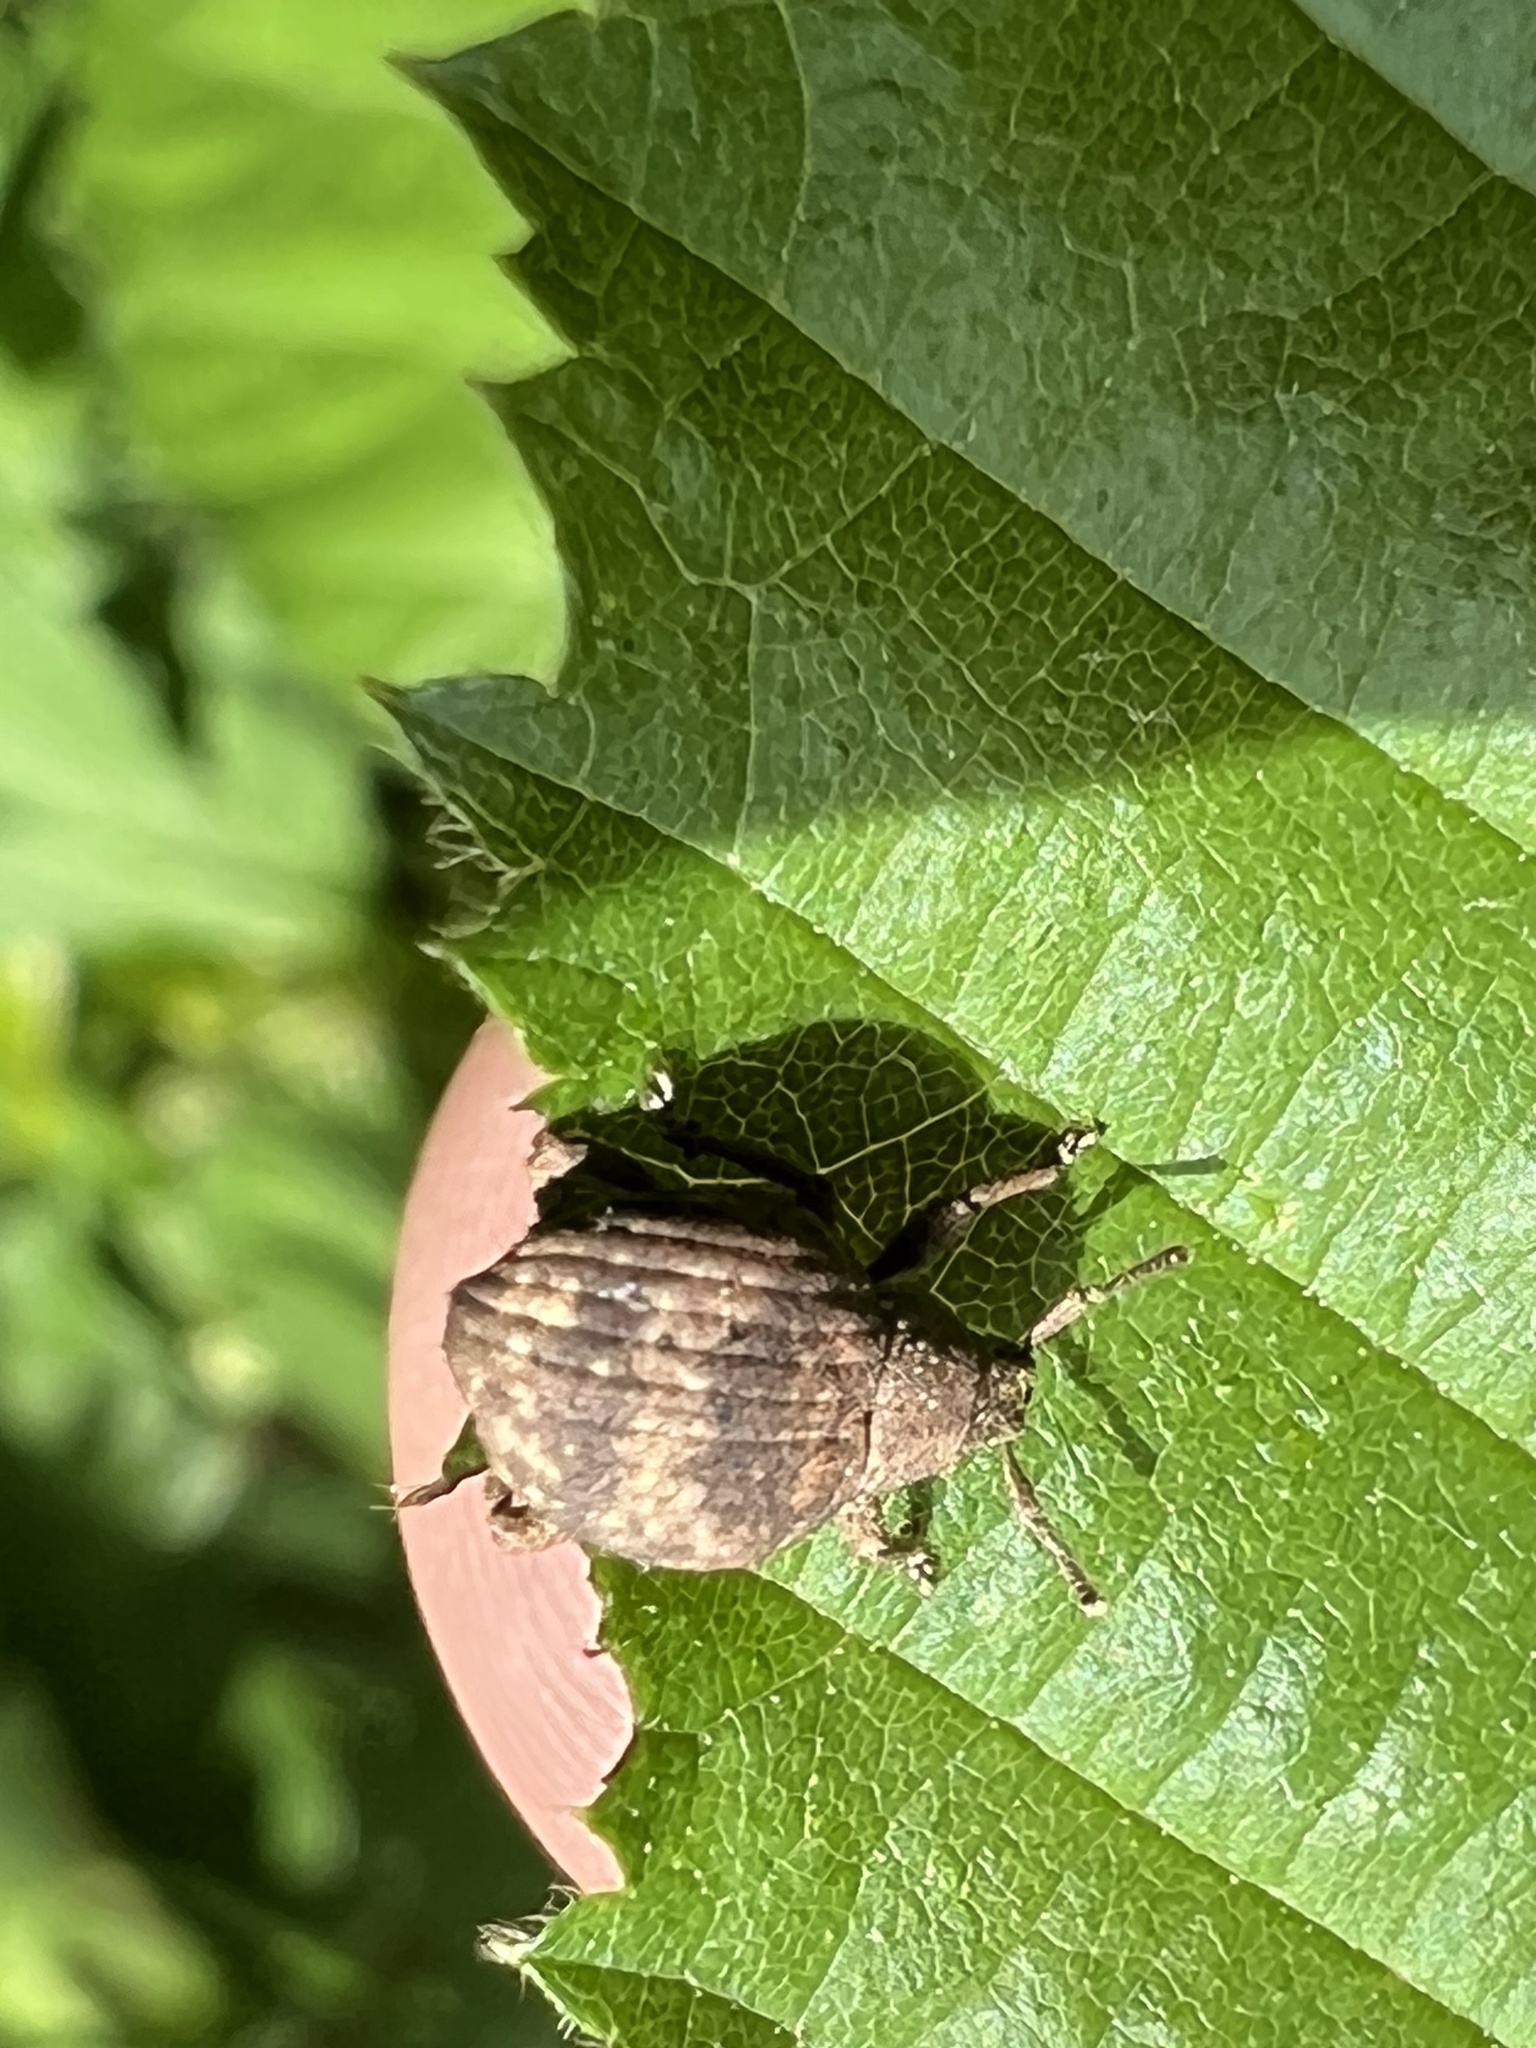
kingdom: Animalia
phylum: Arthropoda
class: Insecta
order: Coleoptera
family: Curculionidae
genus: Pseudocneorhinus
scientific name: Pseudocneorhinus bifasciatus
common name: Two-banded japanese weevil
